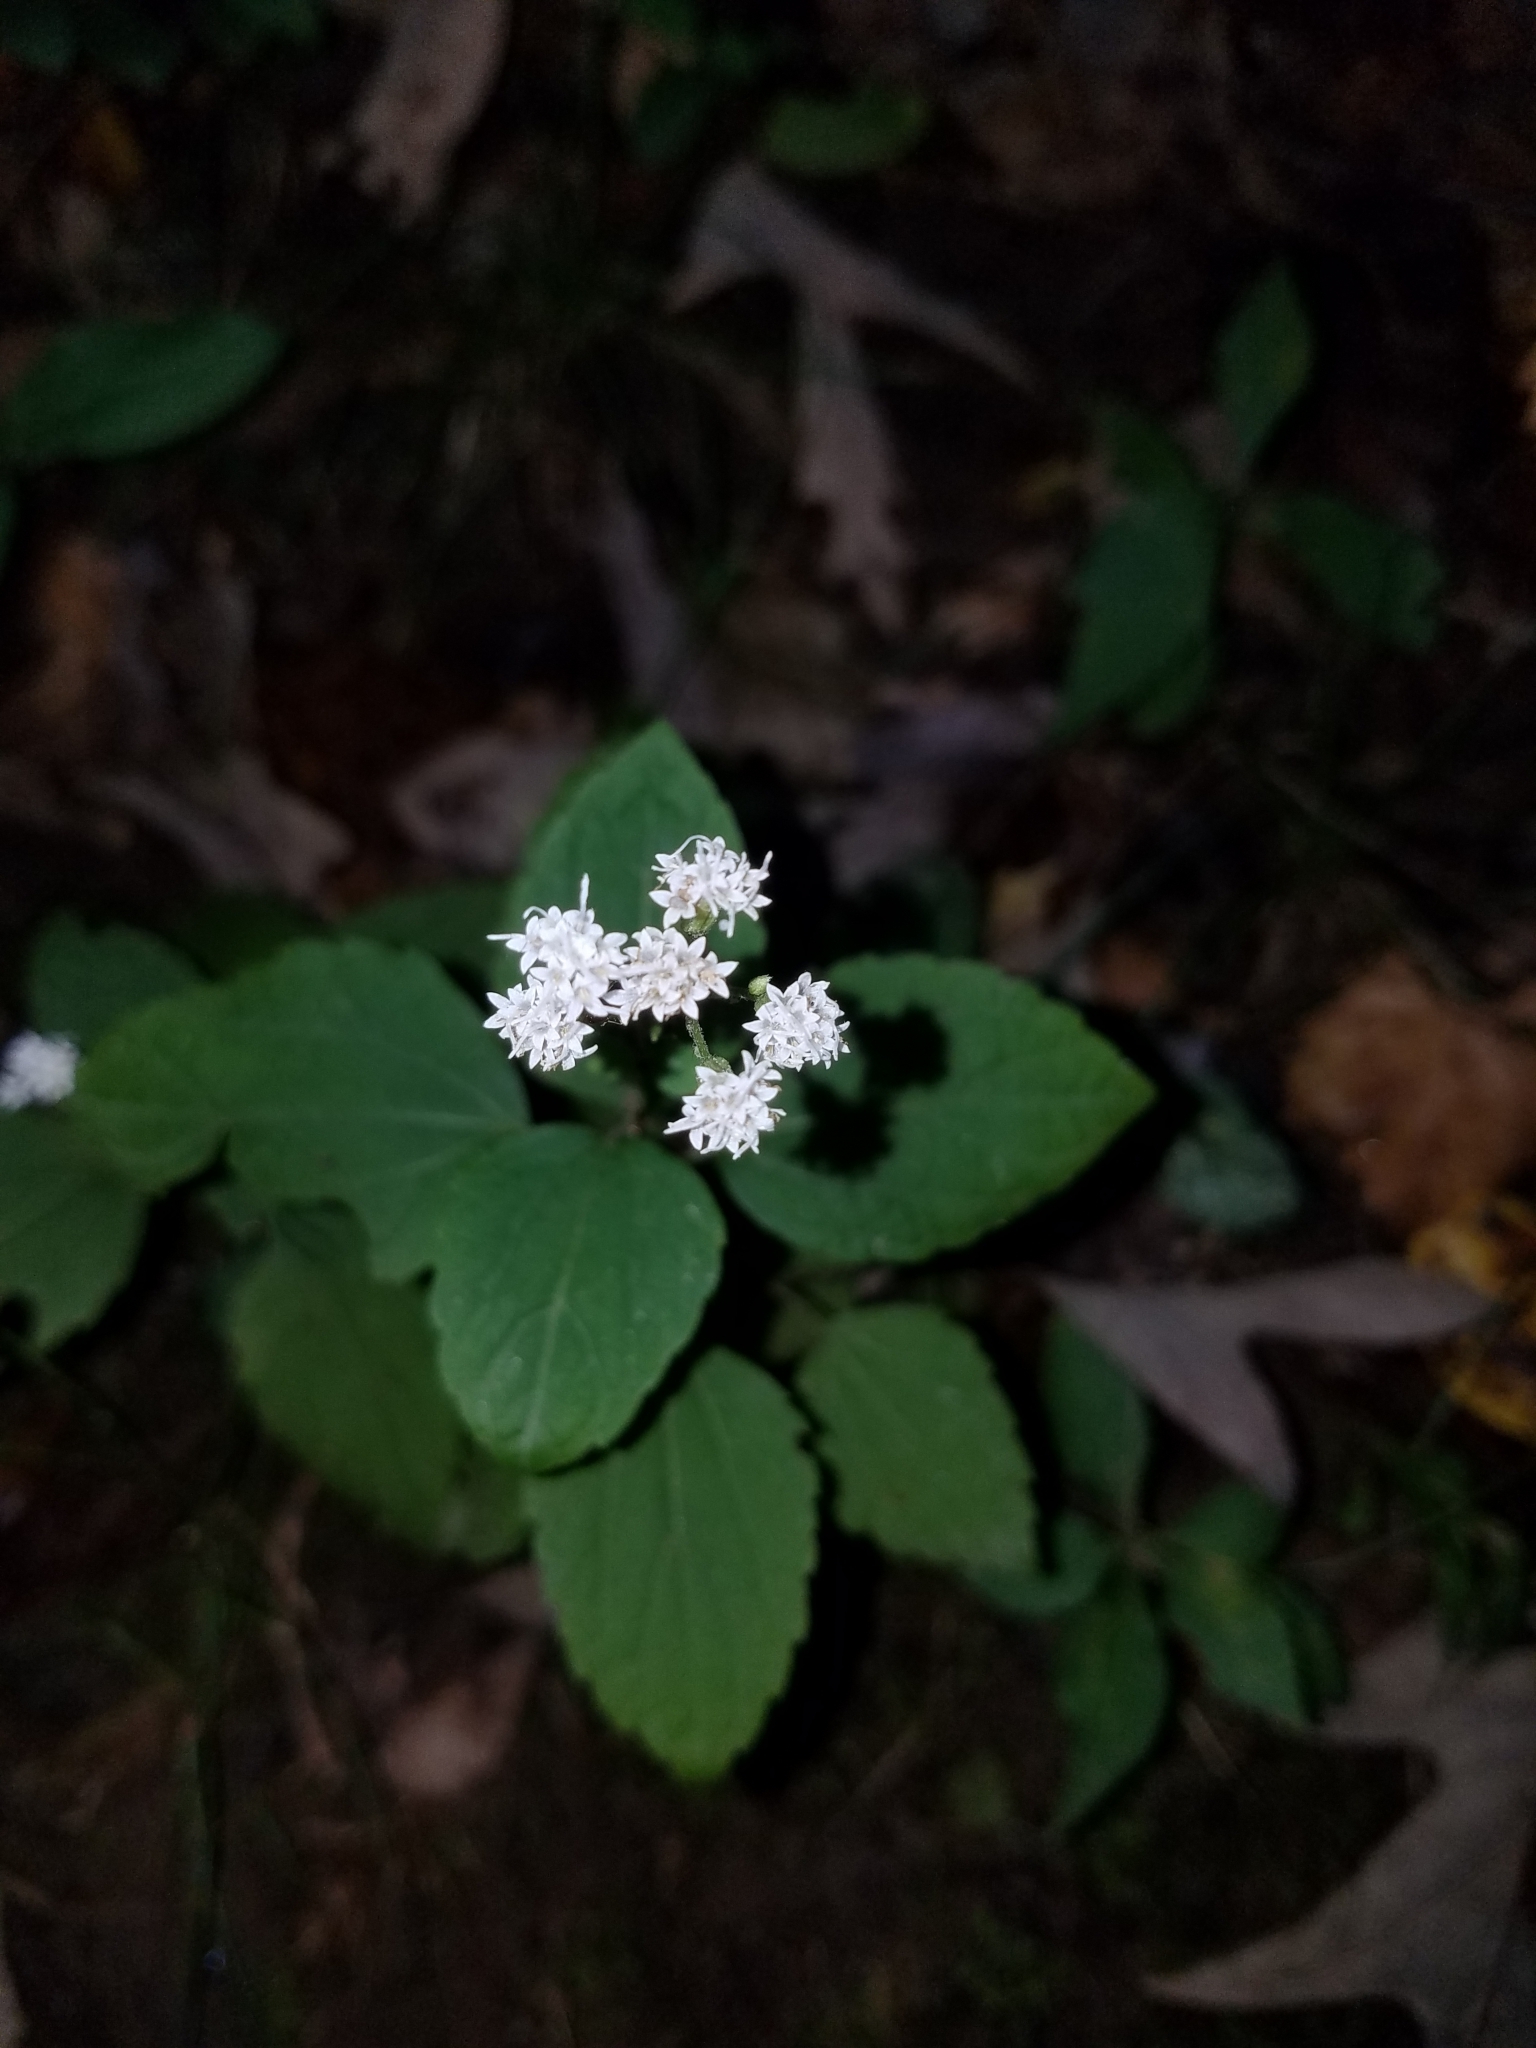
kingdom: Plantae
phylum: Tracheophyta
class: Magnoliopsida
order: Asterales
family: Asteraceae
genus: Ageratina
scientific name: Ageratina altissima
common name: White snakeroot
